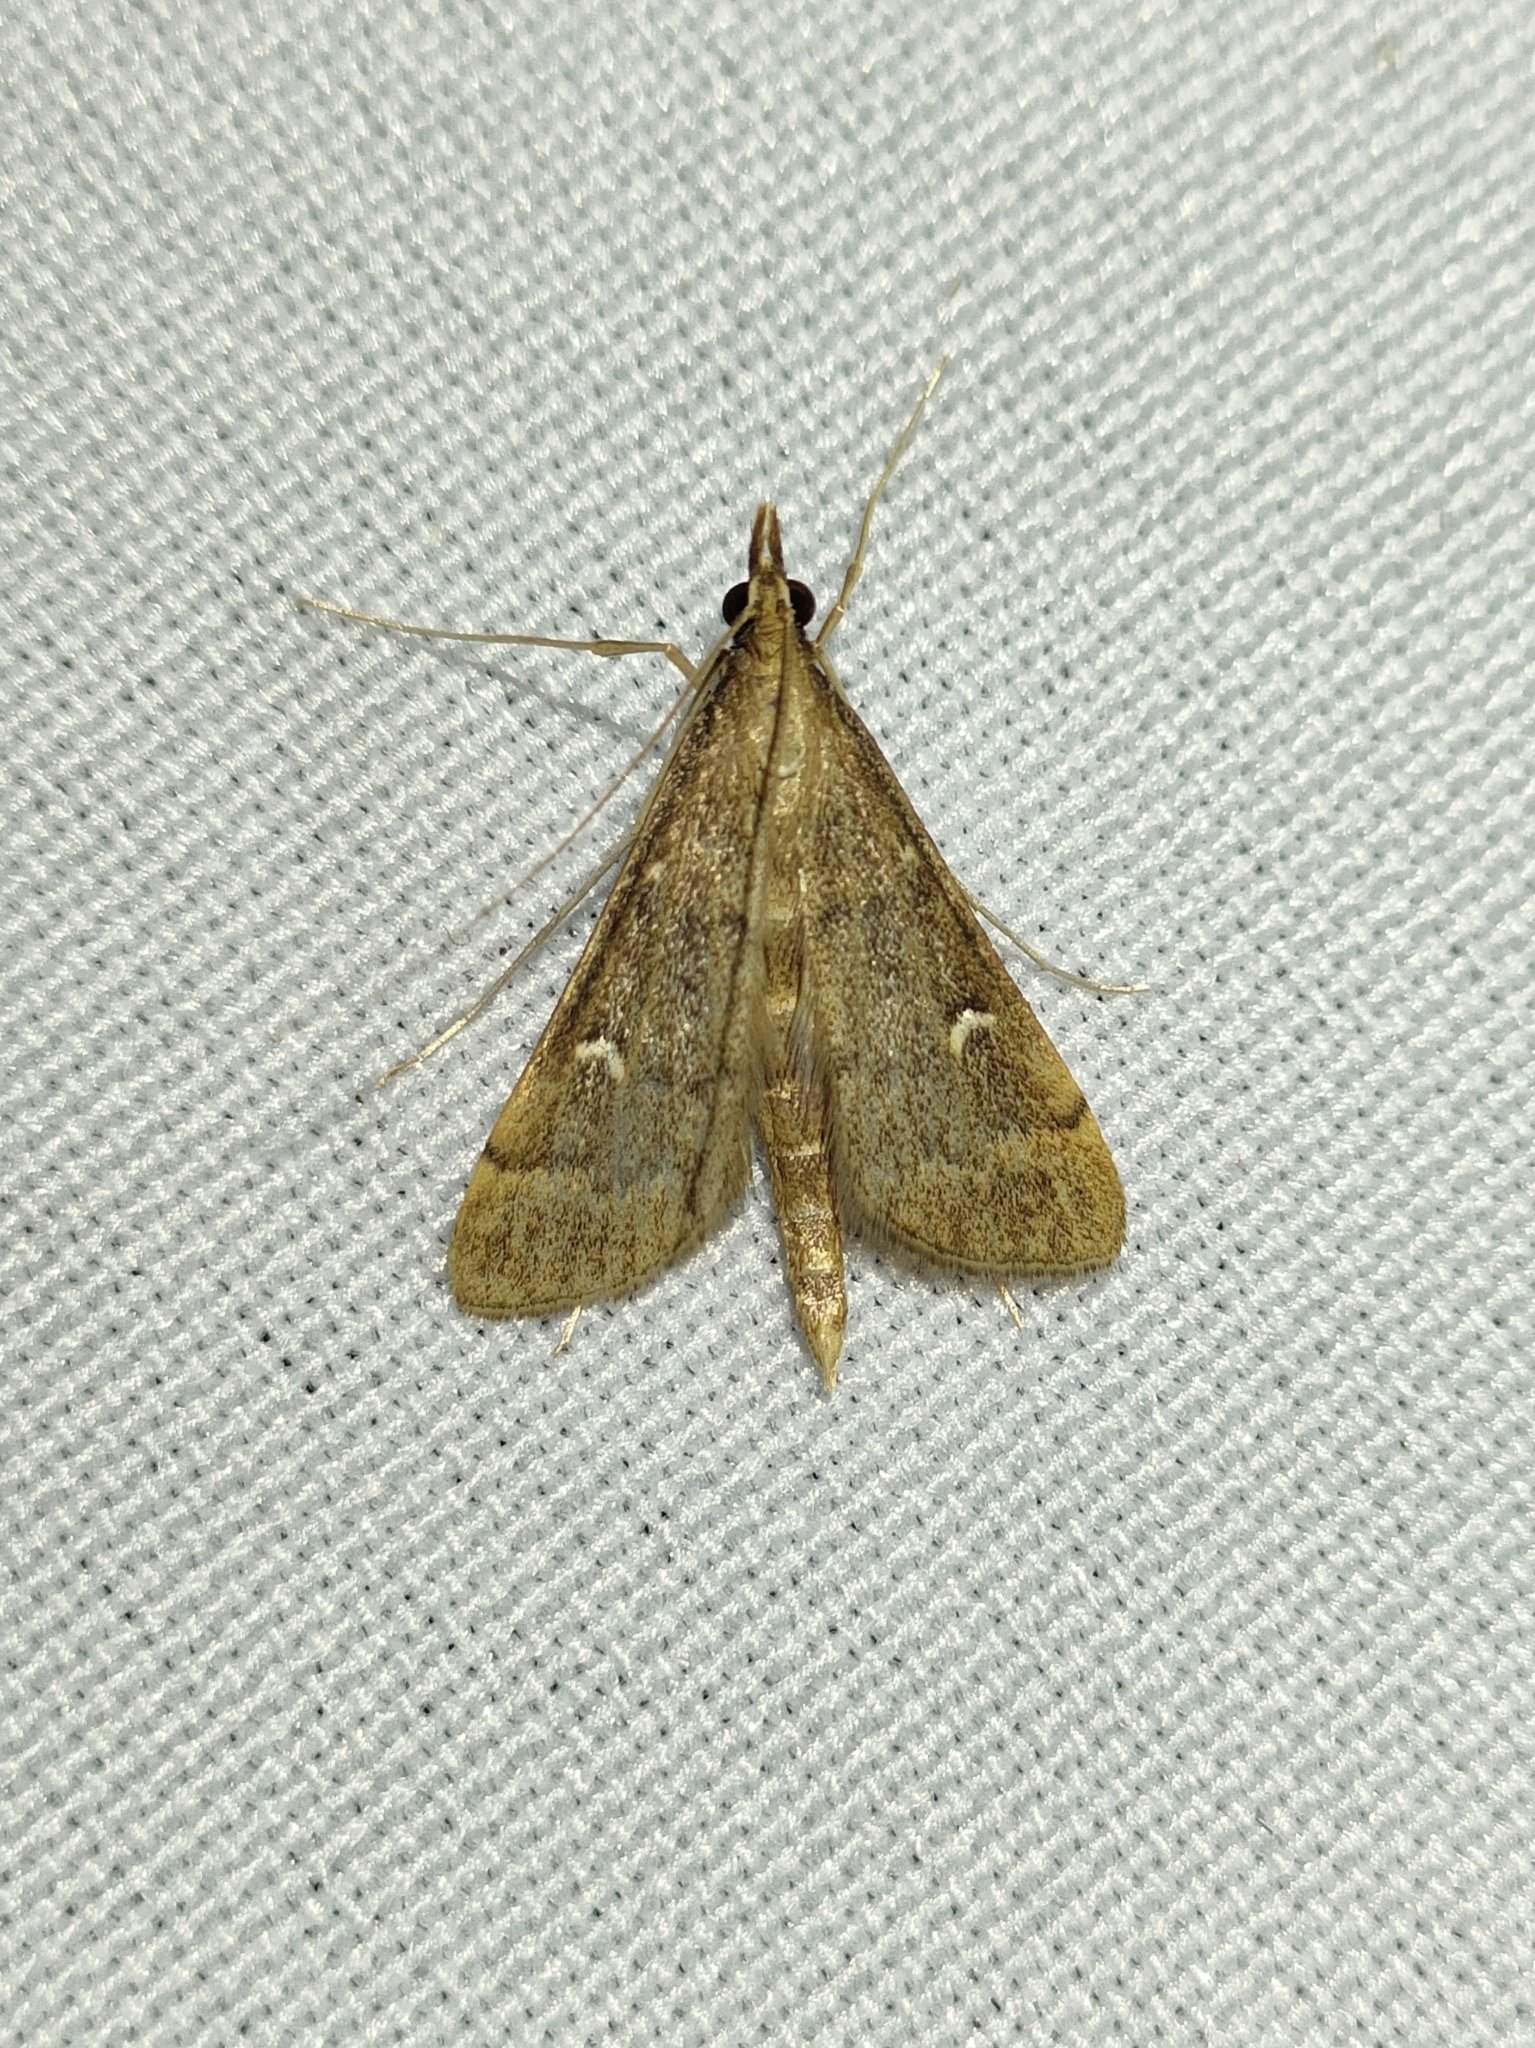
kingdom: Animalia
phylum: Arthropoda
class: Insecta
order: Lepidoptera
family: Crambidae
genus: Stenia
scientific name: Stenia Dolicharthria punctalis
